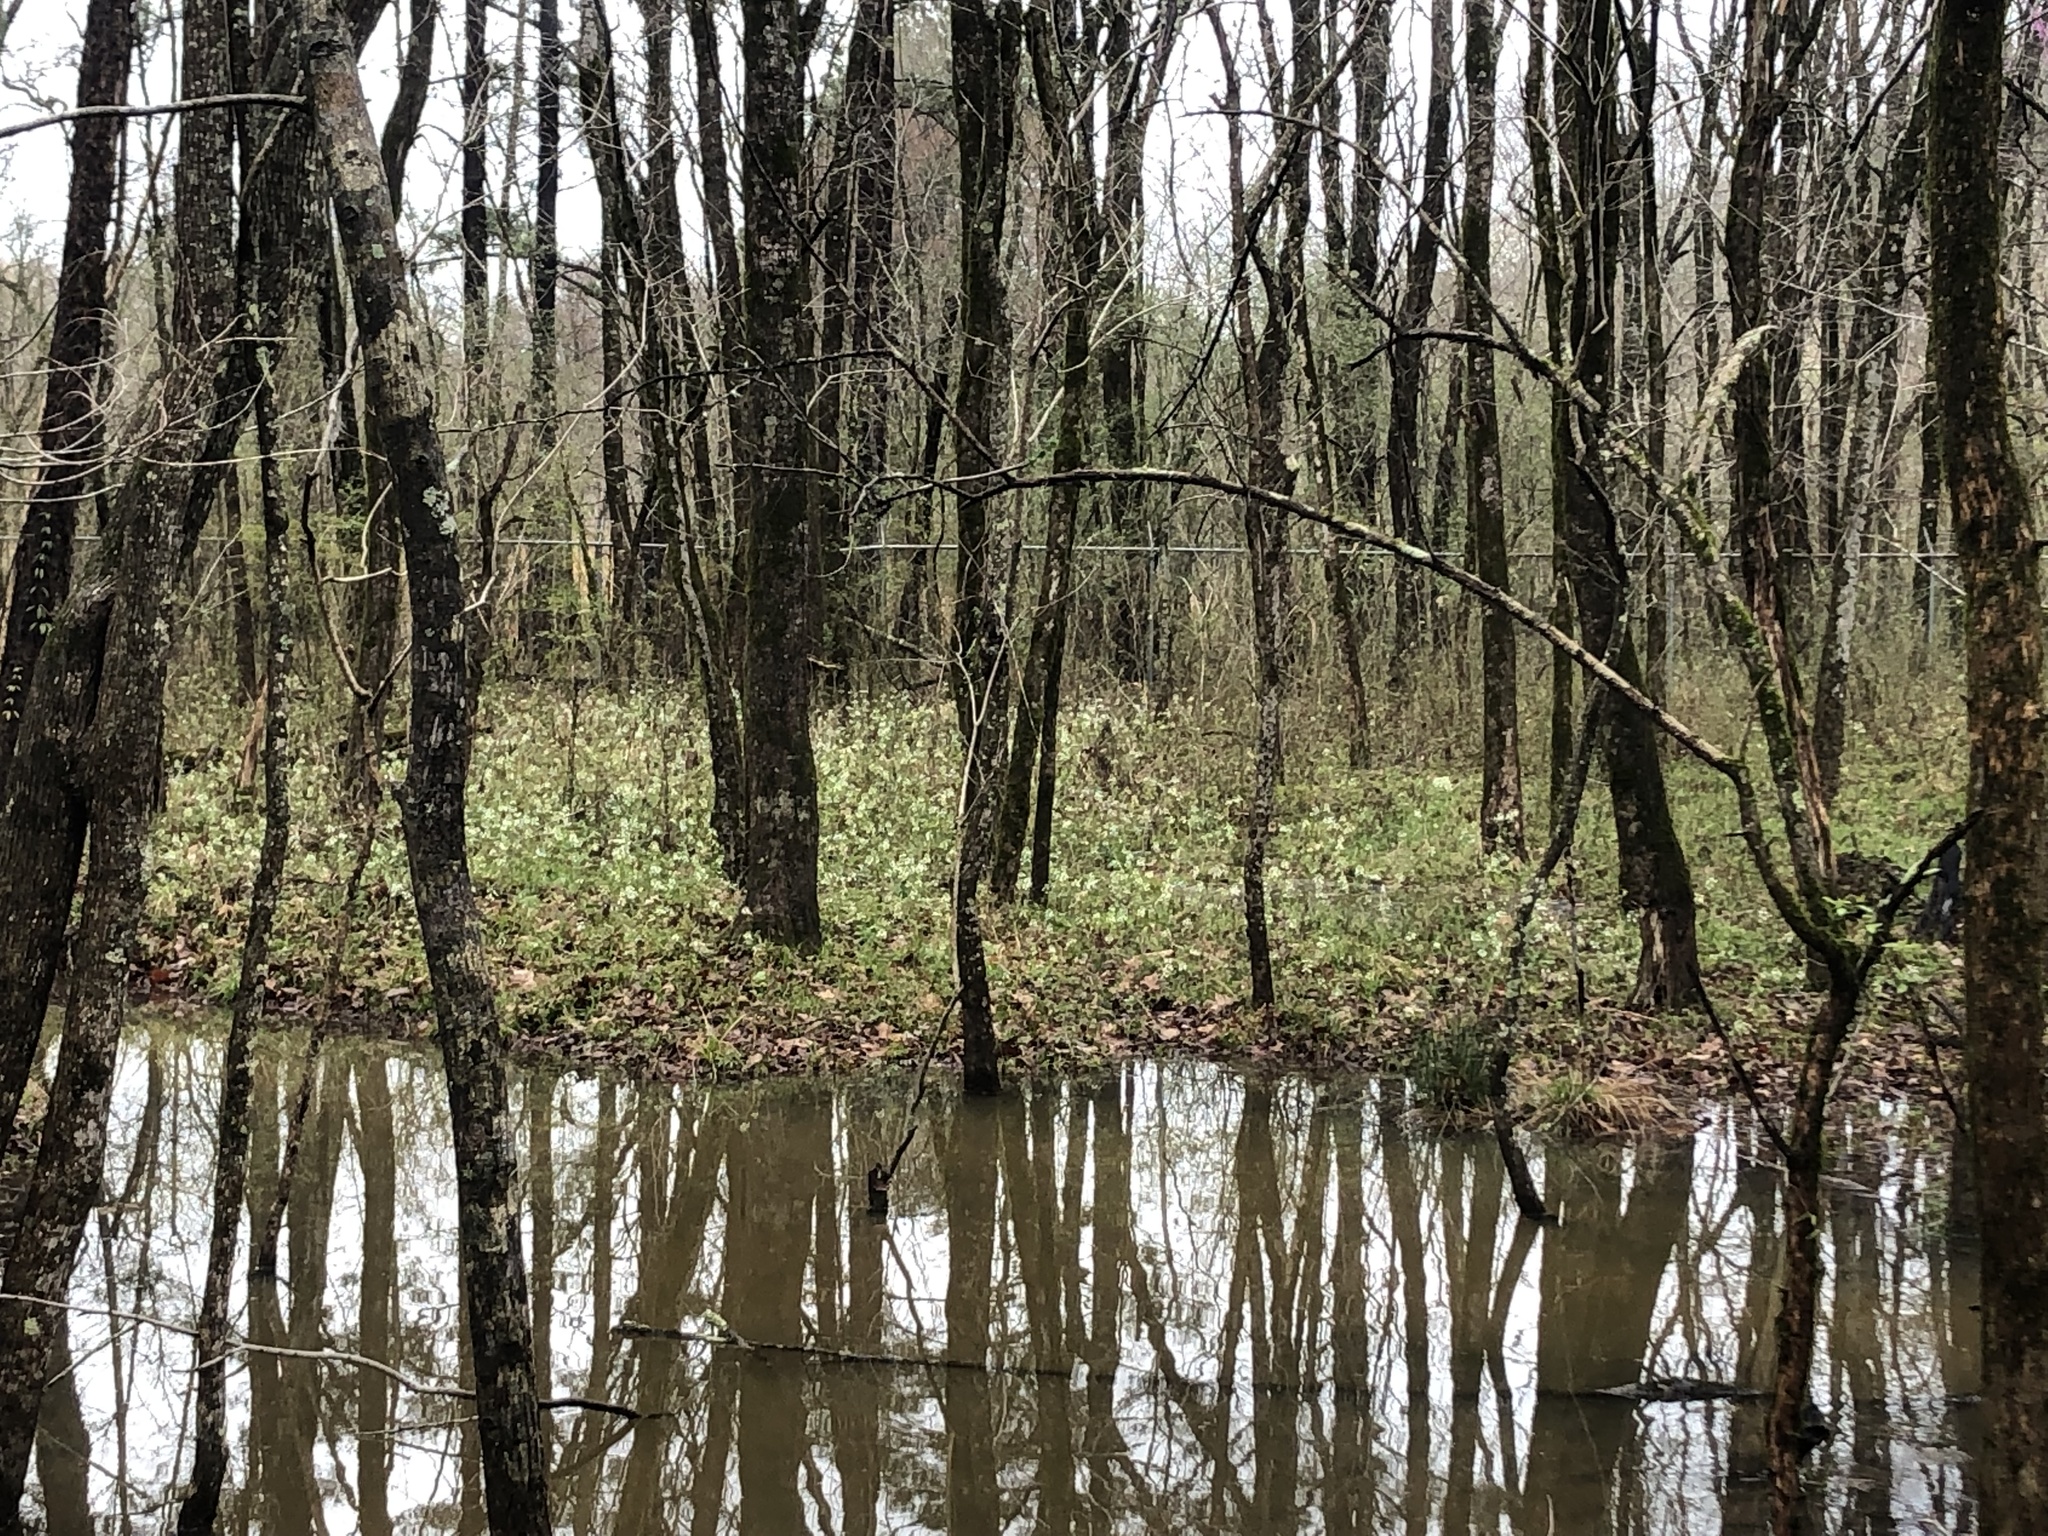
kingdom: Plantae
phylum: Tracheophyta
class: Magnoliopsida
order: Brassicales
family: Brassicaceae
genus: Cardamine
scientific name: Cardamine bulbosa
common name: Spring cress
